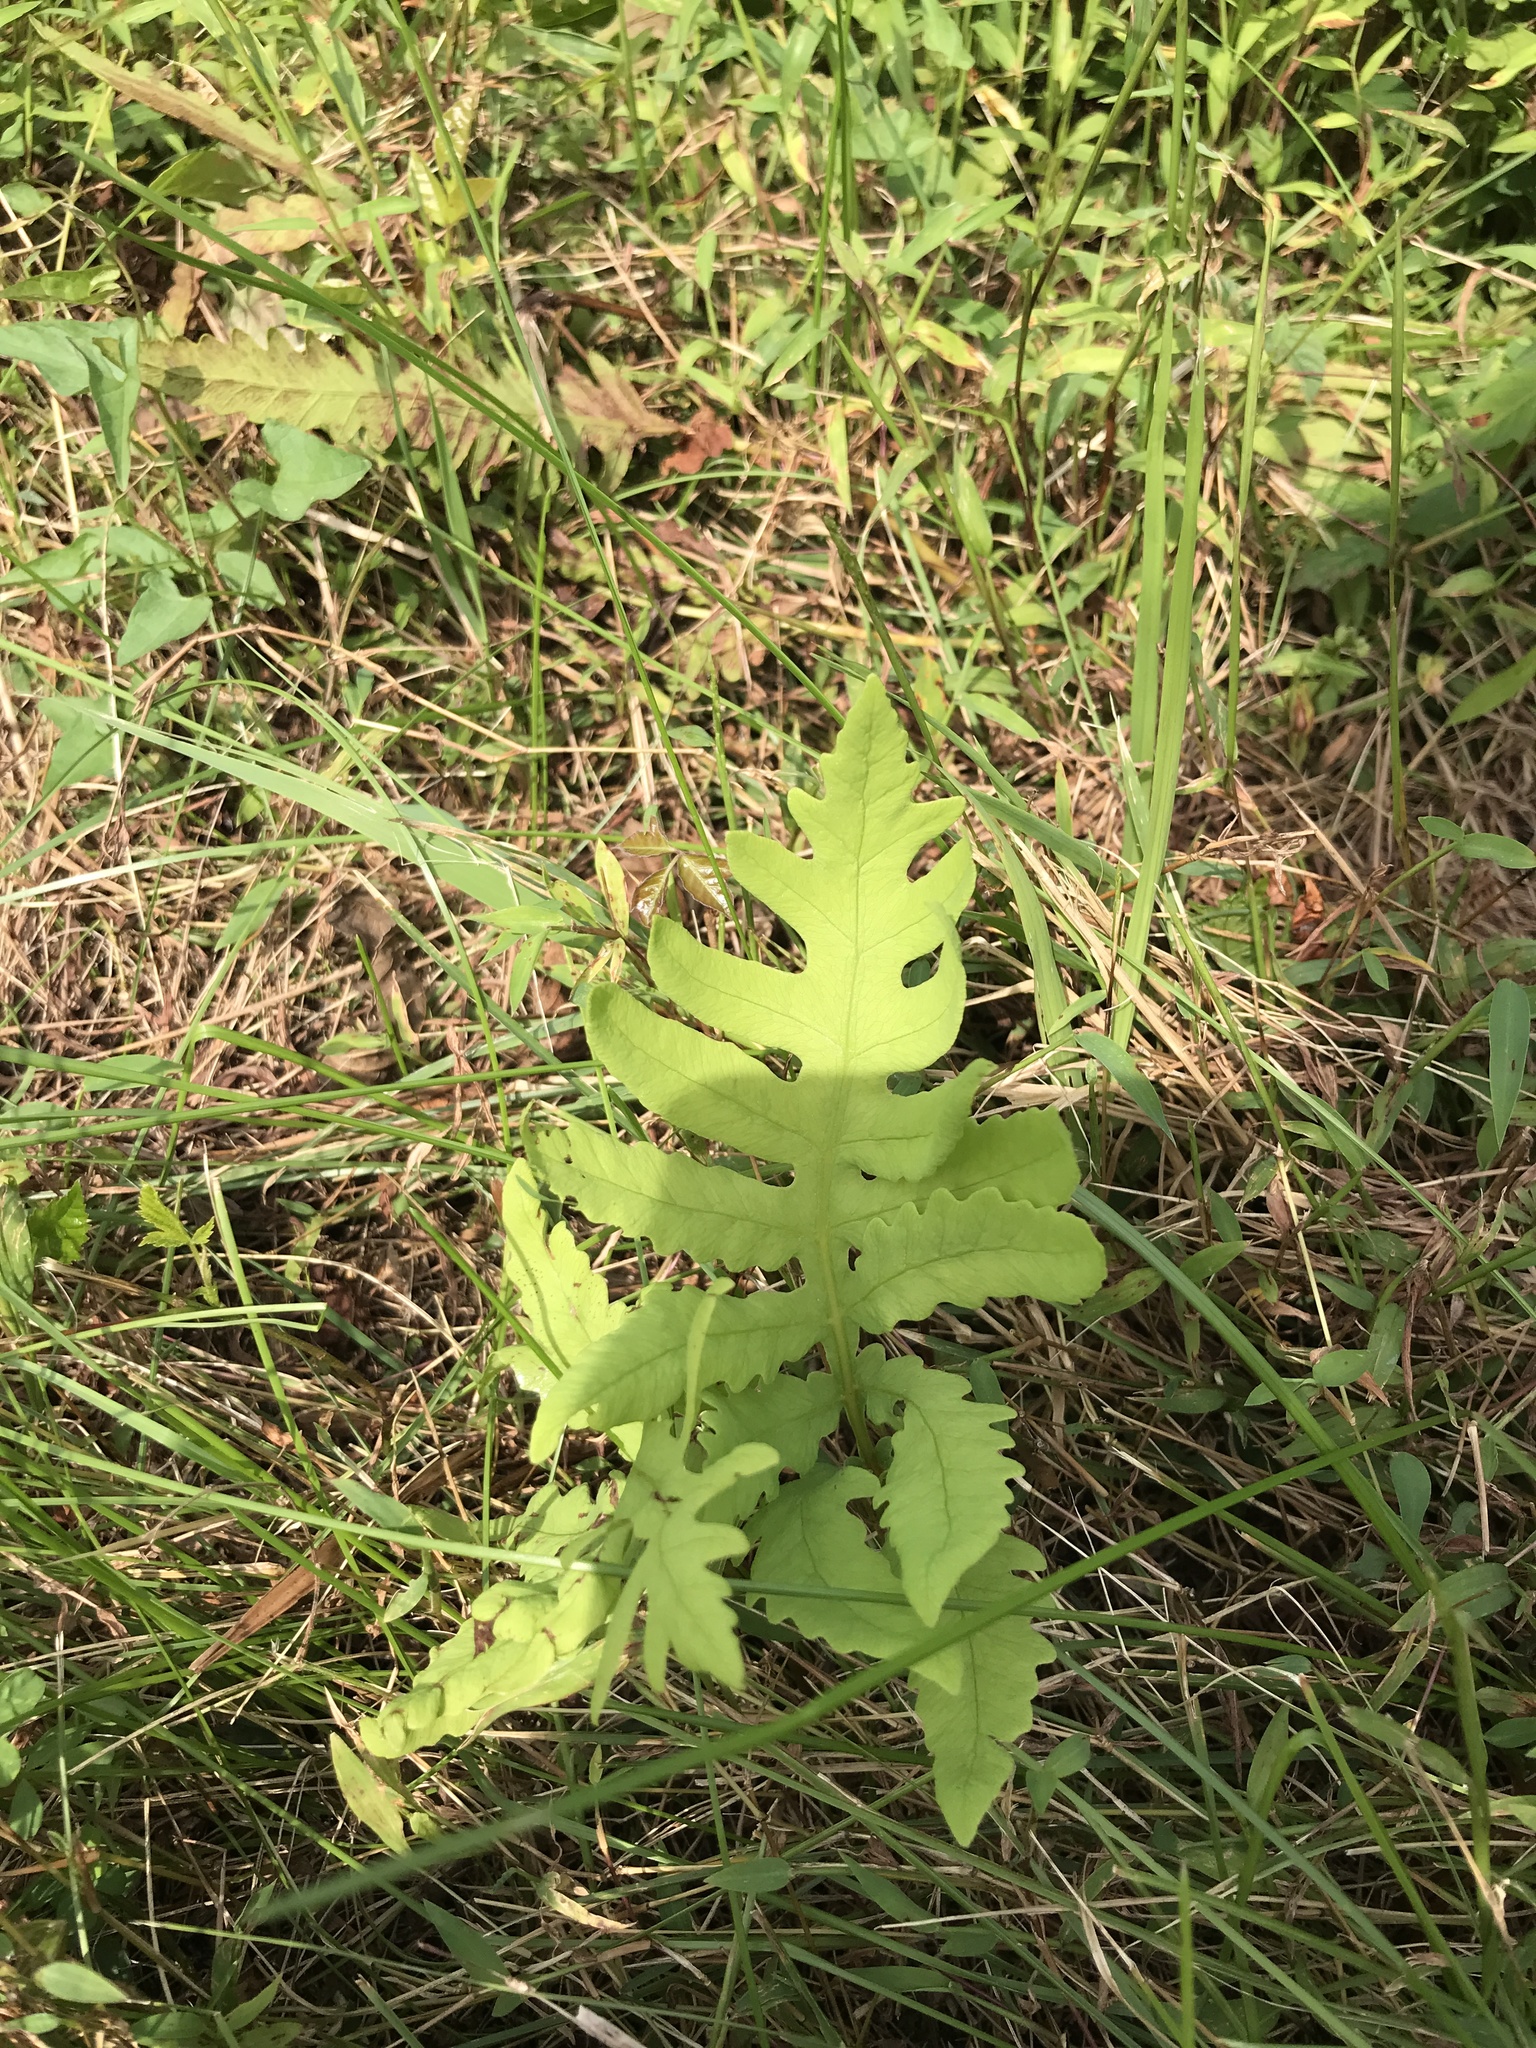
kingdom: Plantae
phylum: Tracheophyta
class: Polypodiopsida
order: Polypodiales
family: Onocleaceae
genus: Onoclea
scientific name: Onoclea sensibilis
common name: Sensitive fern
